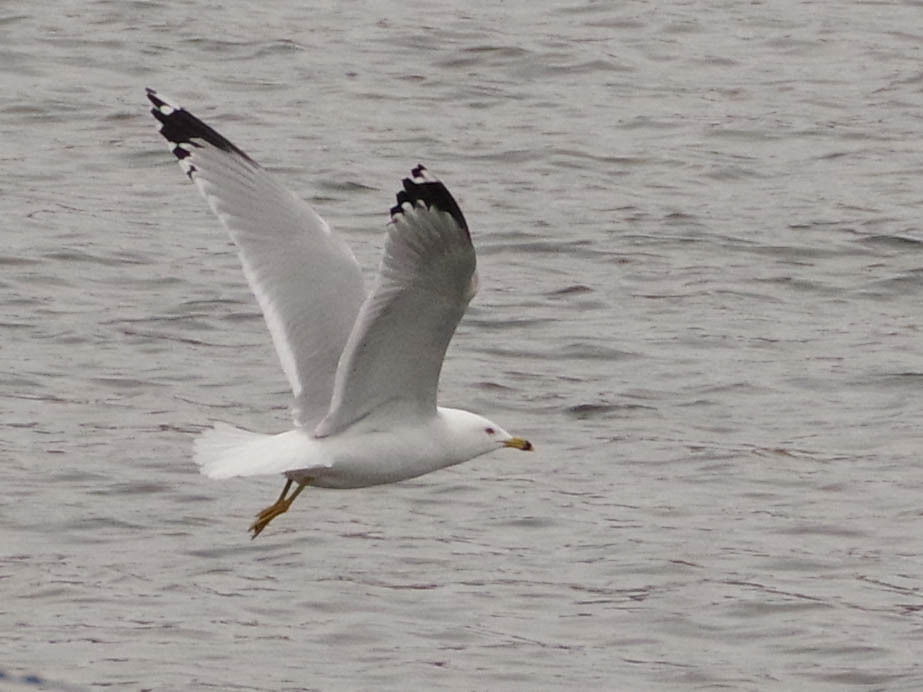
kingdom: Animalia
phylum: Chordata
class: Aves
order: Charadriiformes
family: Laridae
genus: Larus
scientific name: Larus delawarensis
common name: Ring-billed gull
